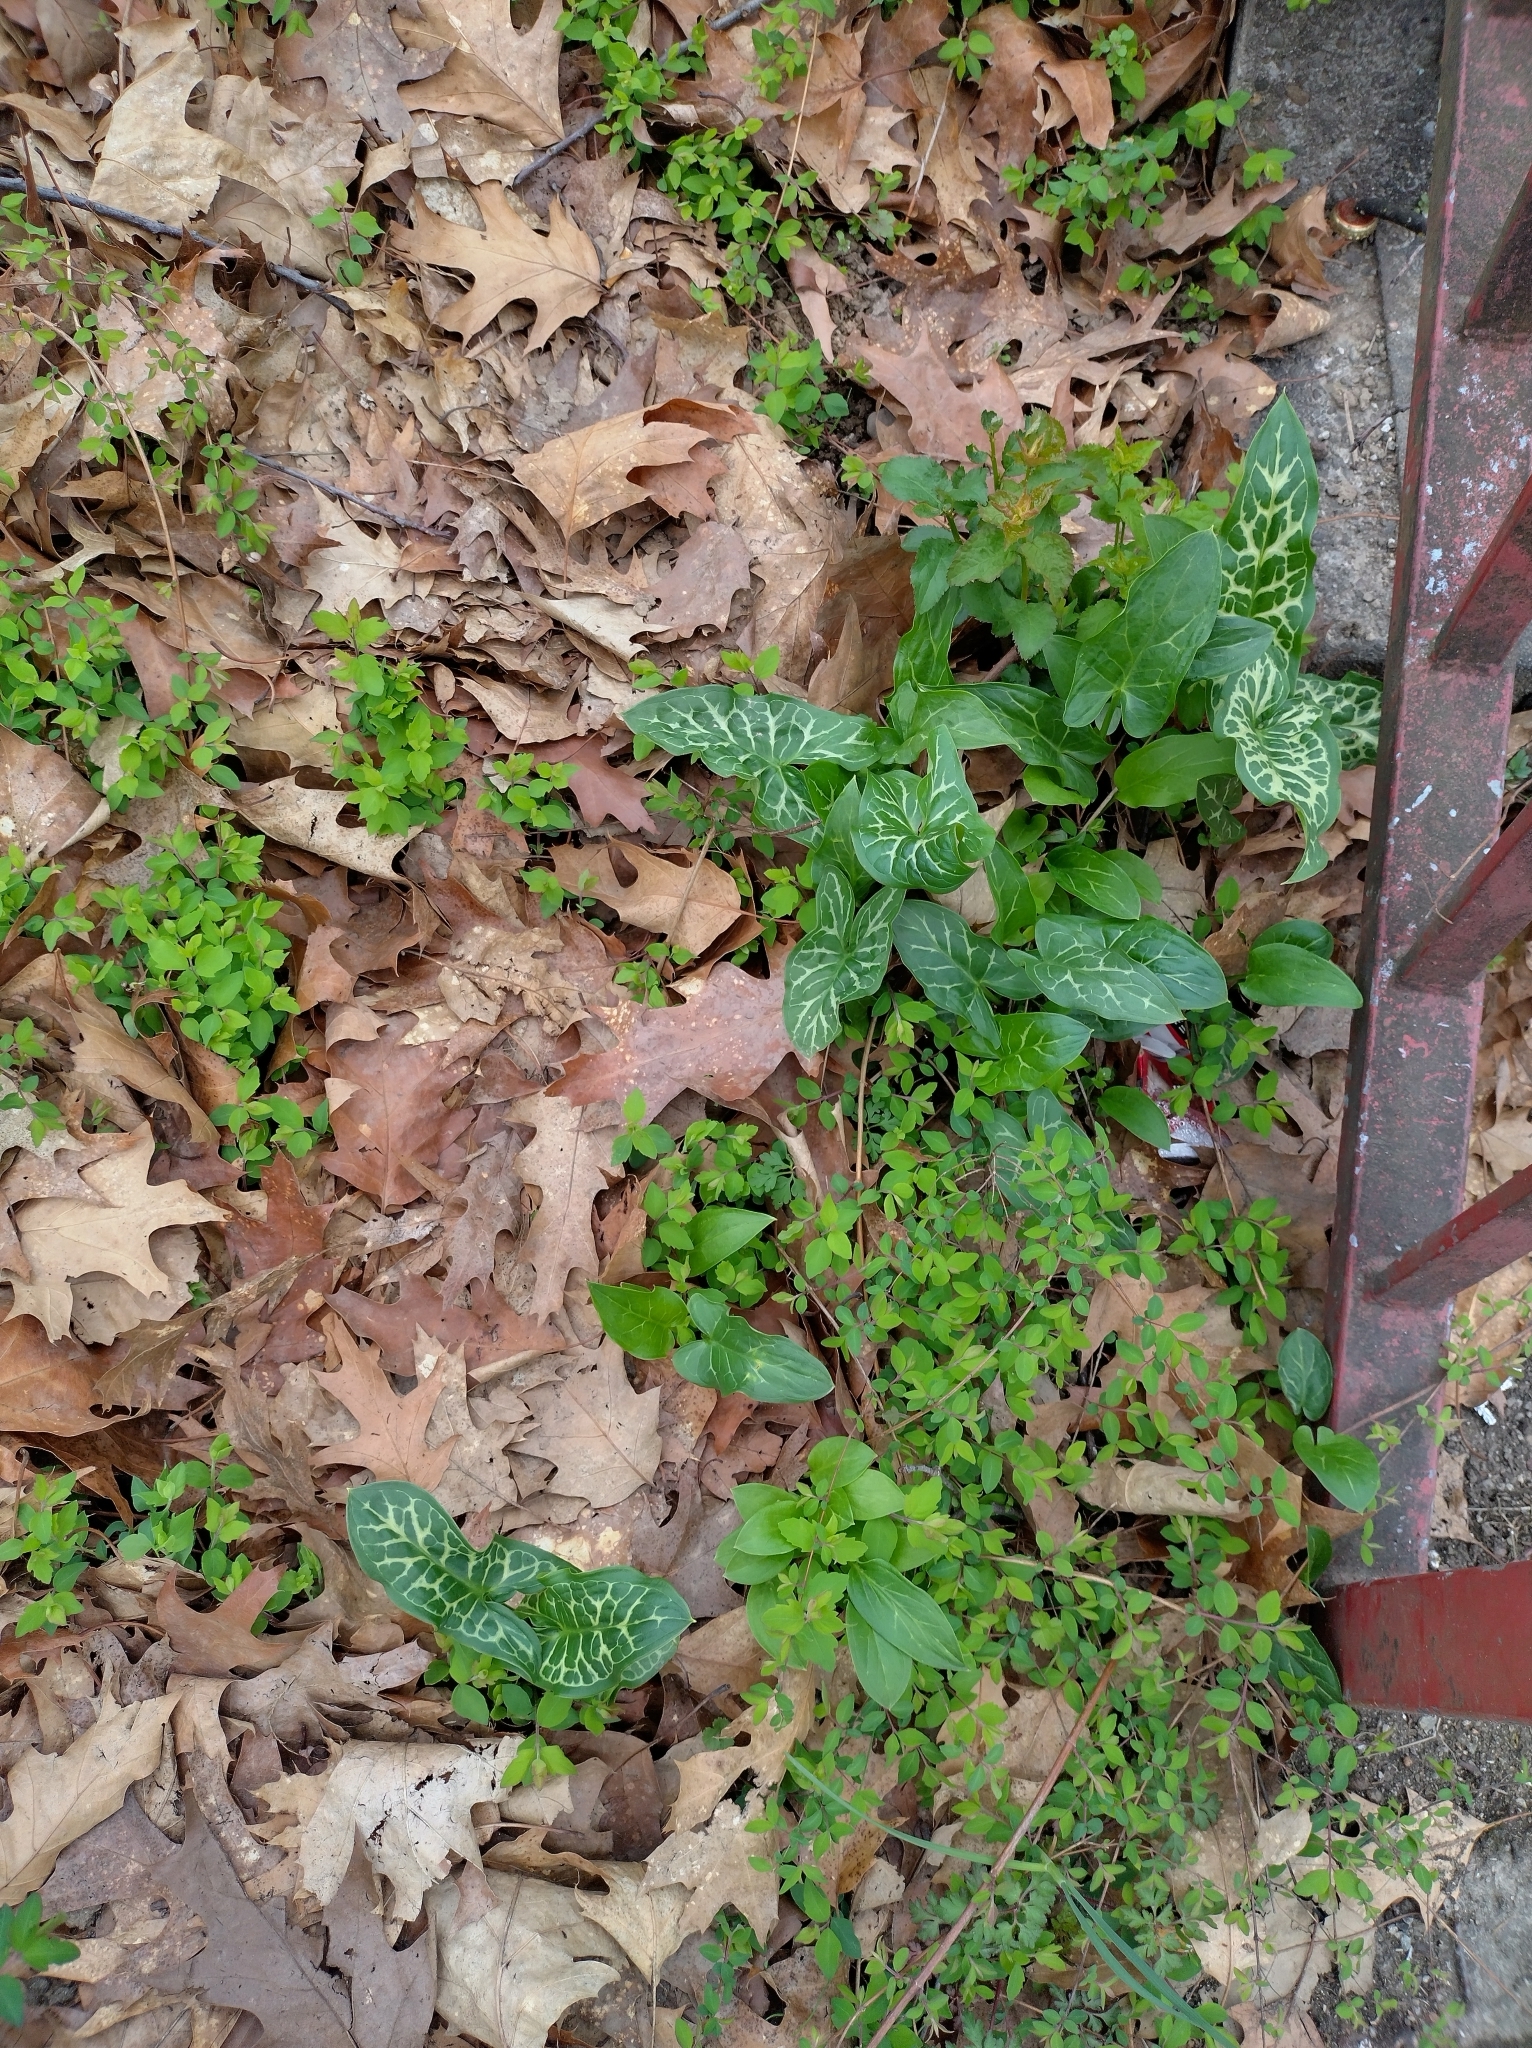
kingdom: Plantae
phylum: Tracheophyta
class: Liliopsida
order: Alismatales
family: Araceae
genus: Arum
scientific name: Arum italicum
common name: Italian lords-and-ladies
